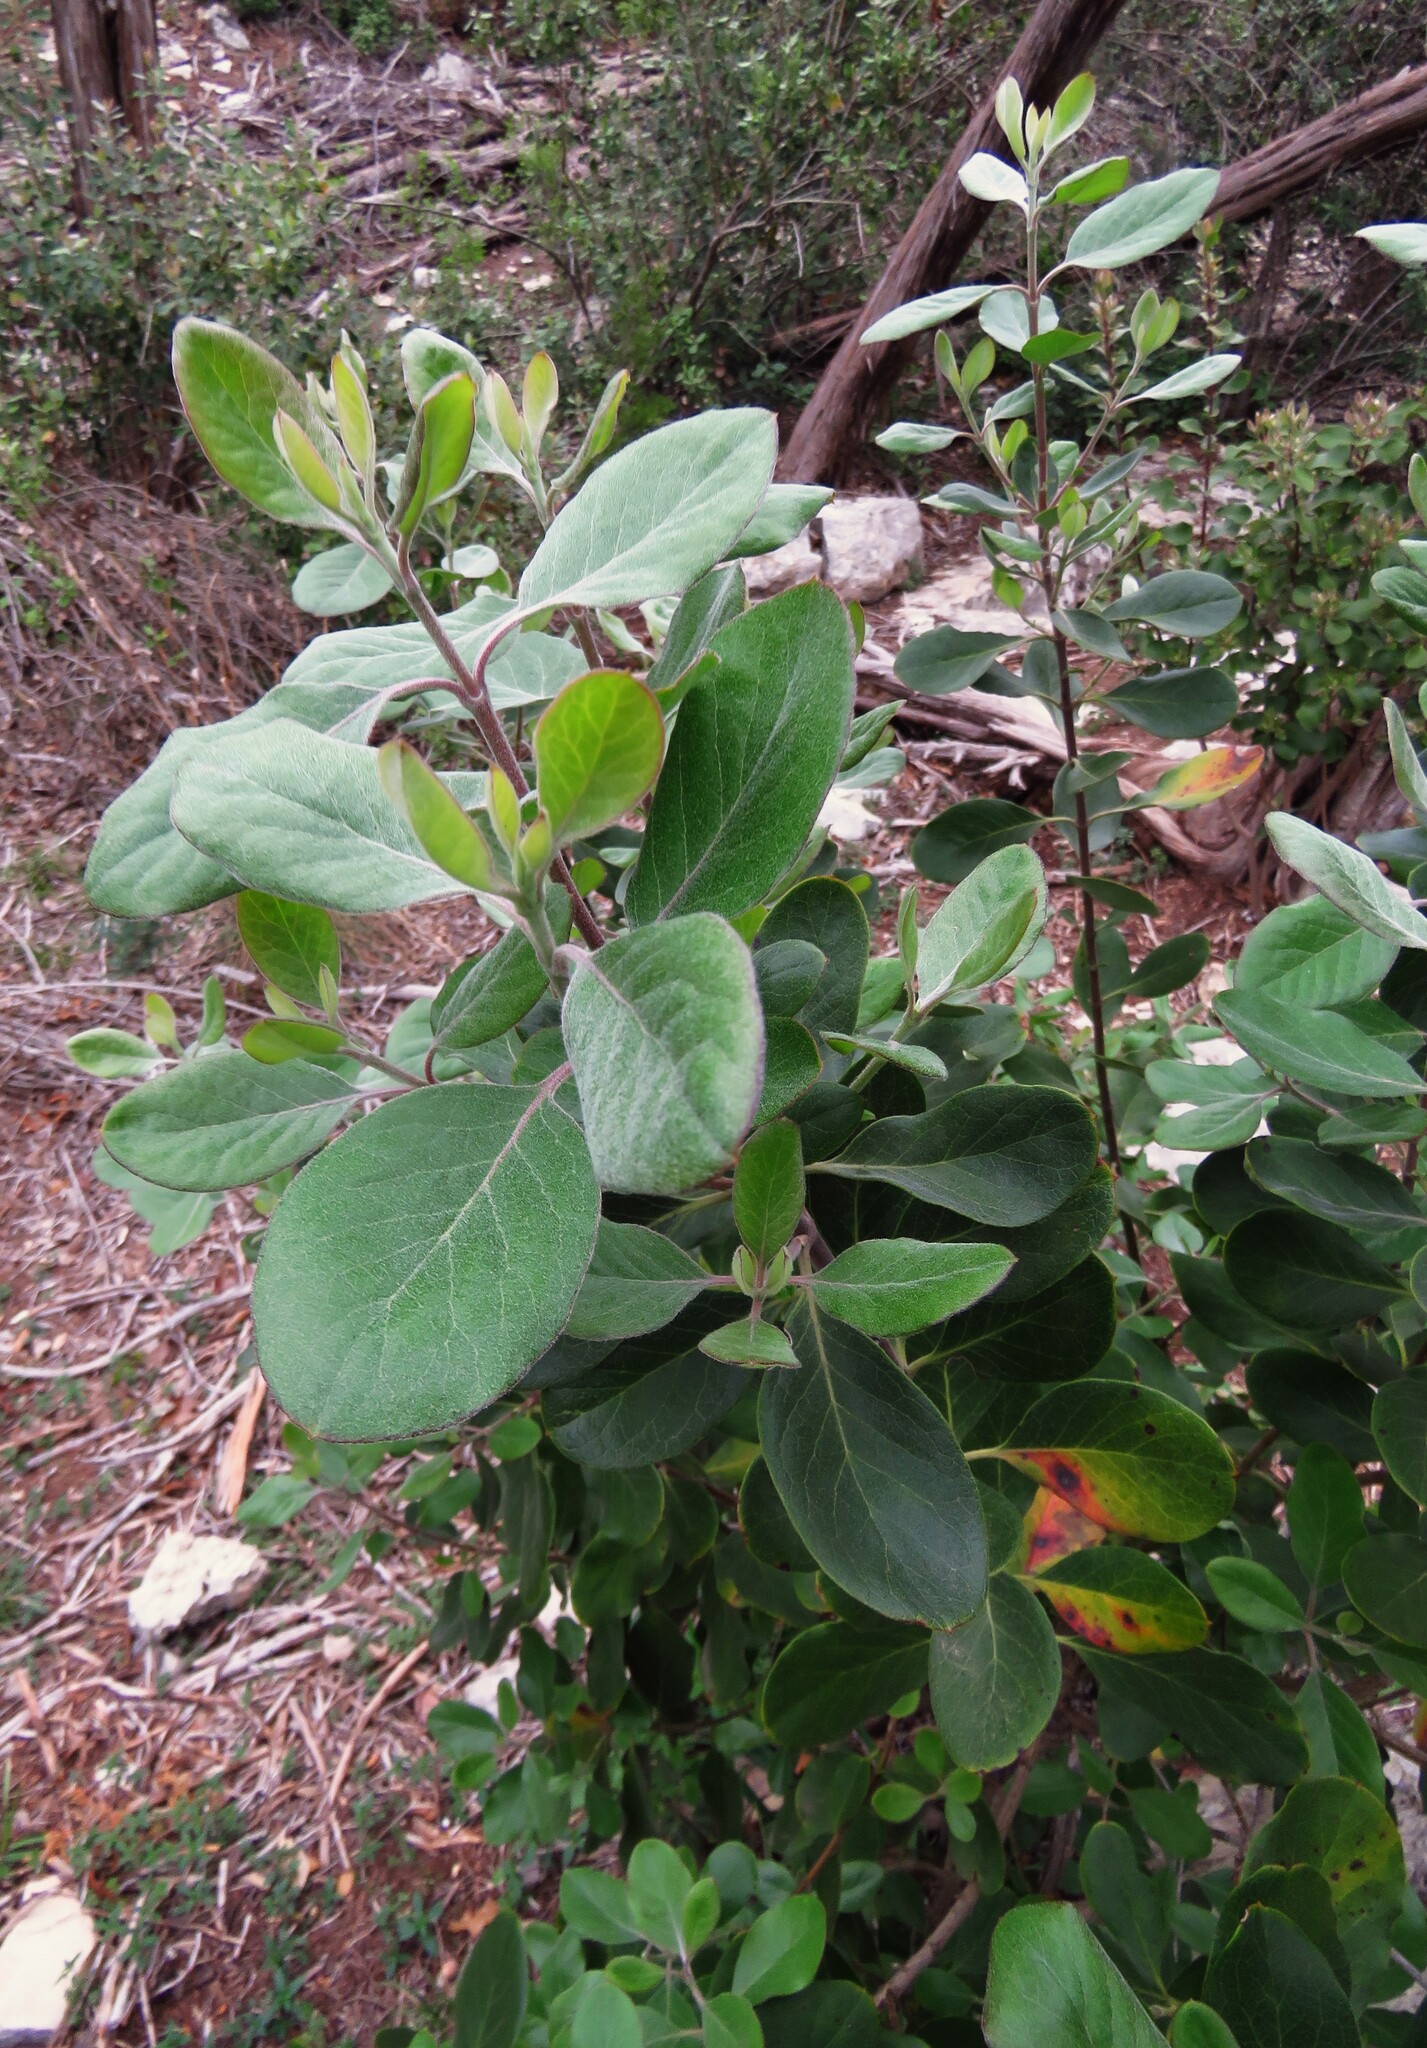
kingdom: Plantae
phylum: Tracheophyta
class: Magnoliopsida
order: Garryales
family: Garryaceae
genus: Garrya
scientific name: Garrya lindheimeri
